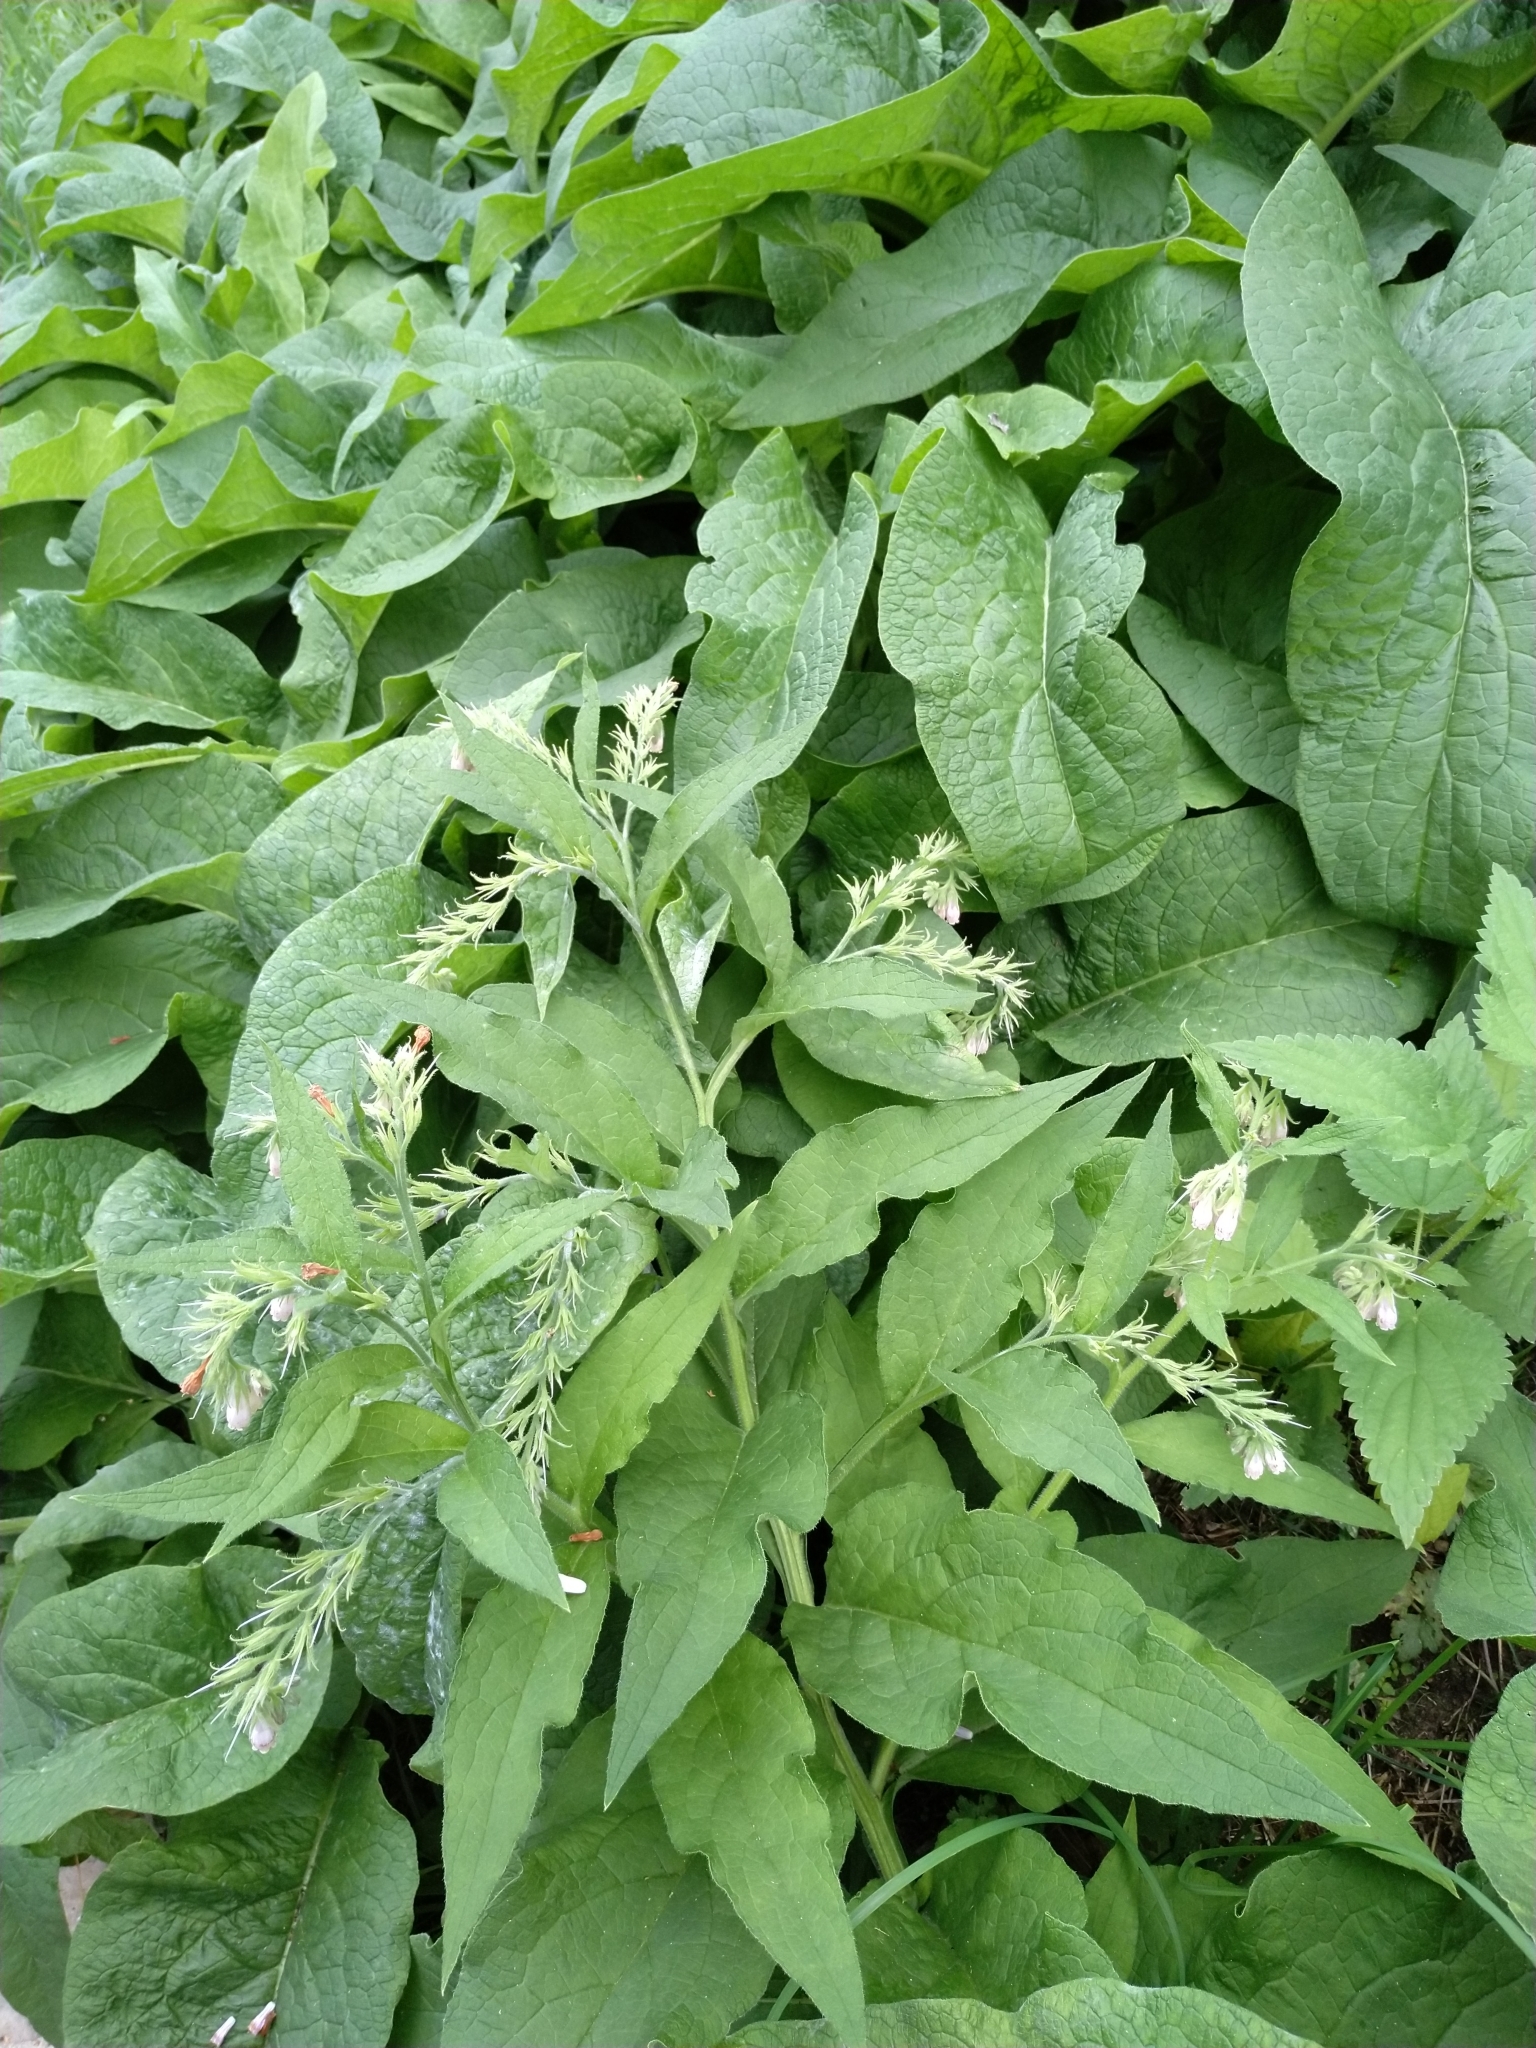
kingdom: Plantae
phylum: Tracheophyta
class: Magnoliopsida
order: Boraginales
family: Boraginaceae
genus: Symphytum
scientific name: Symphytum officinale
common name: Common comfrey
